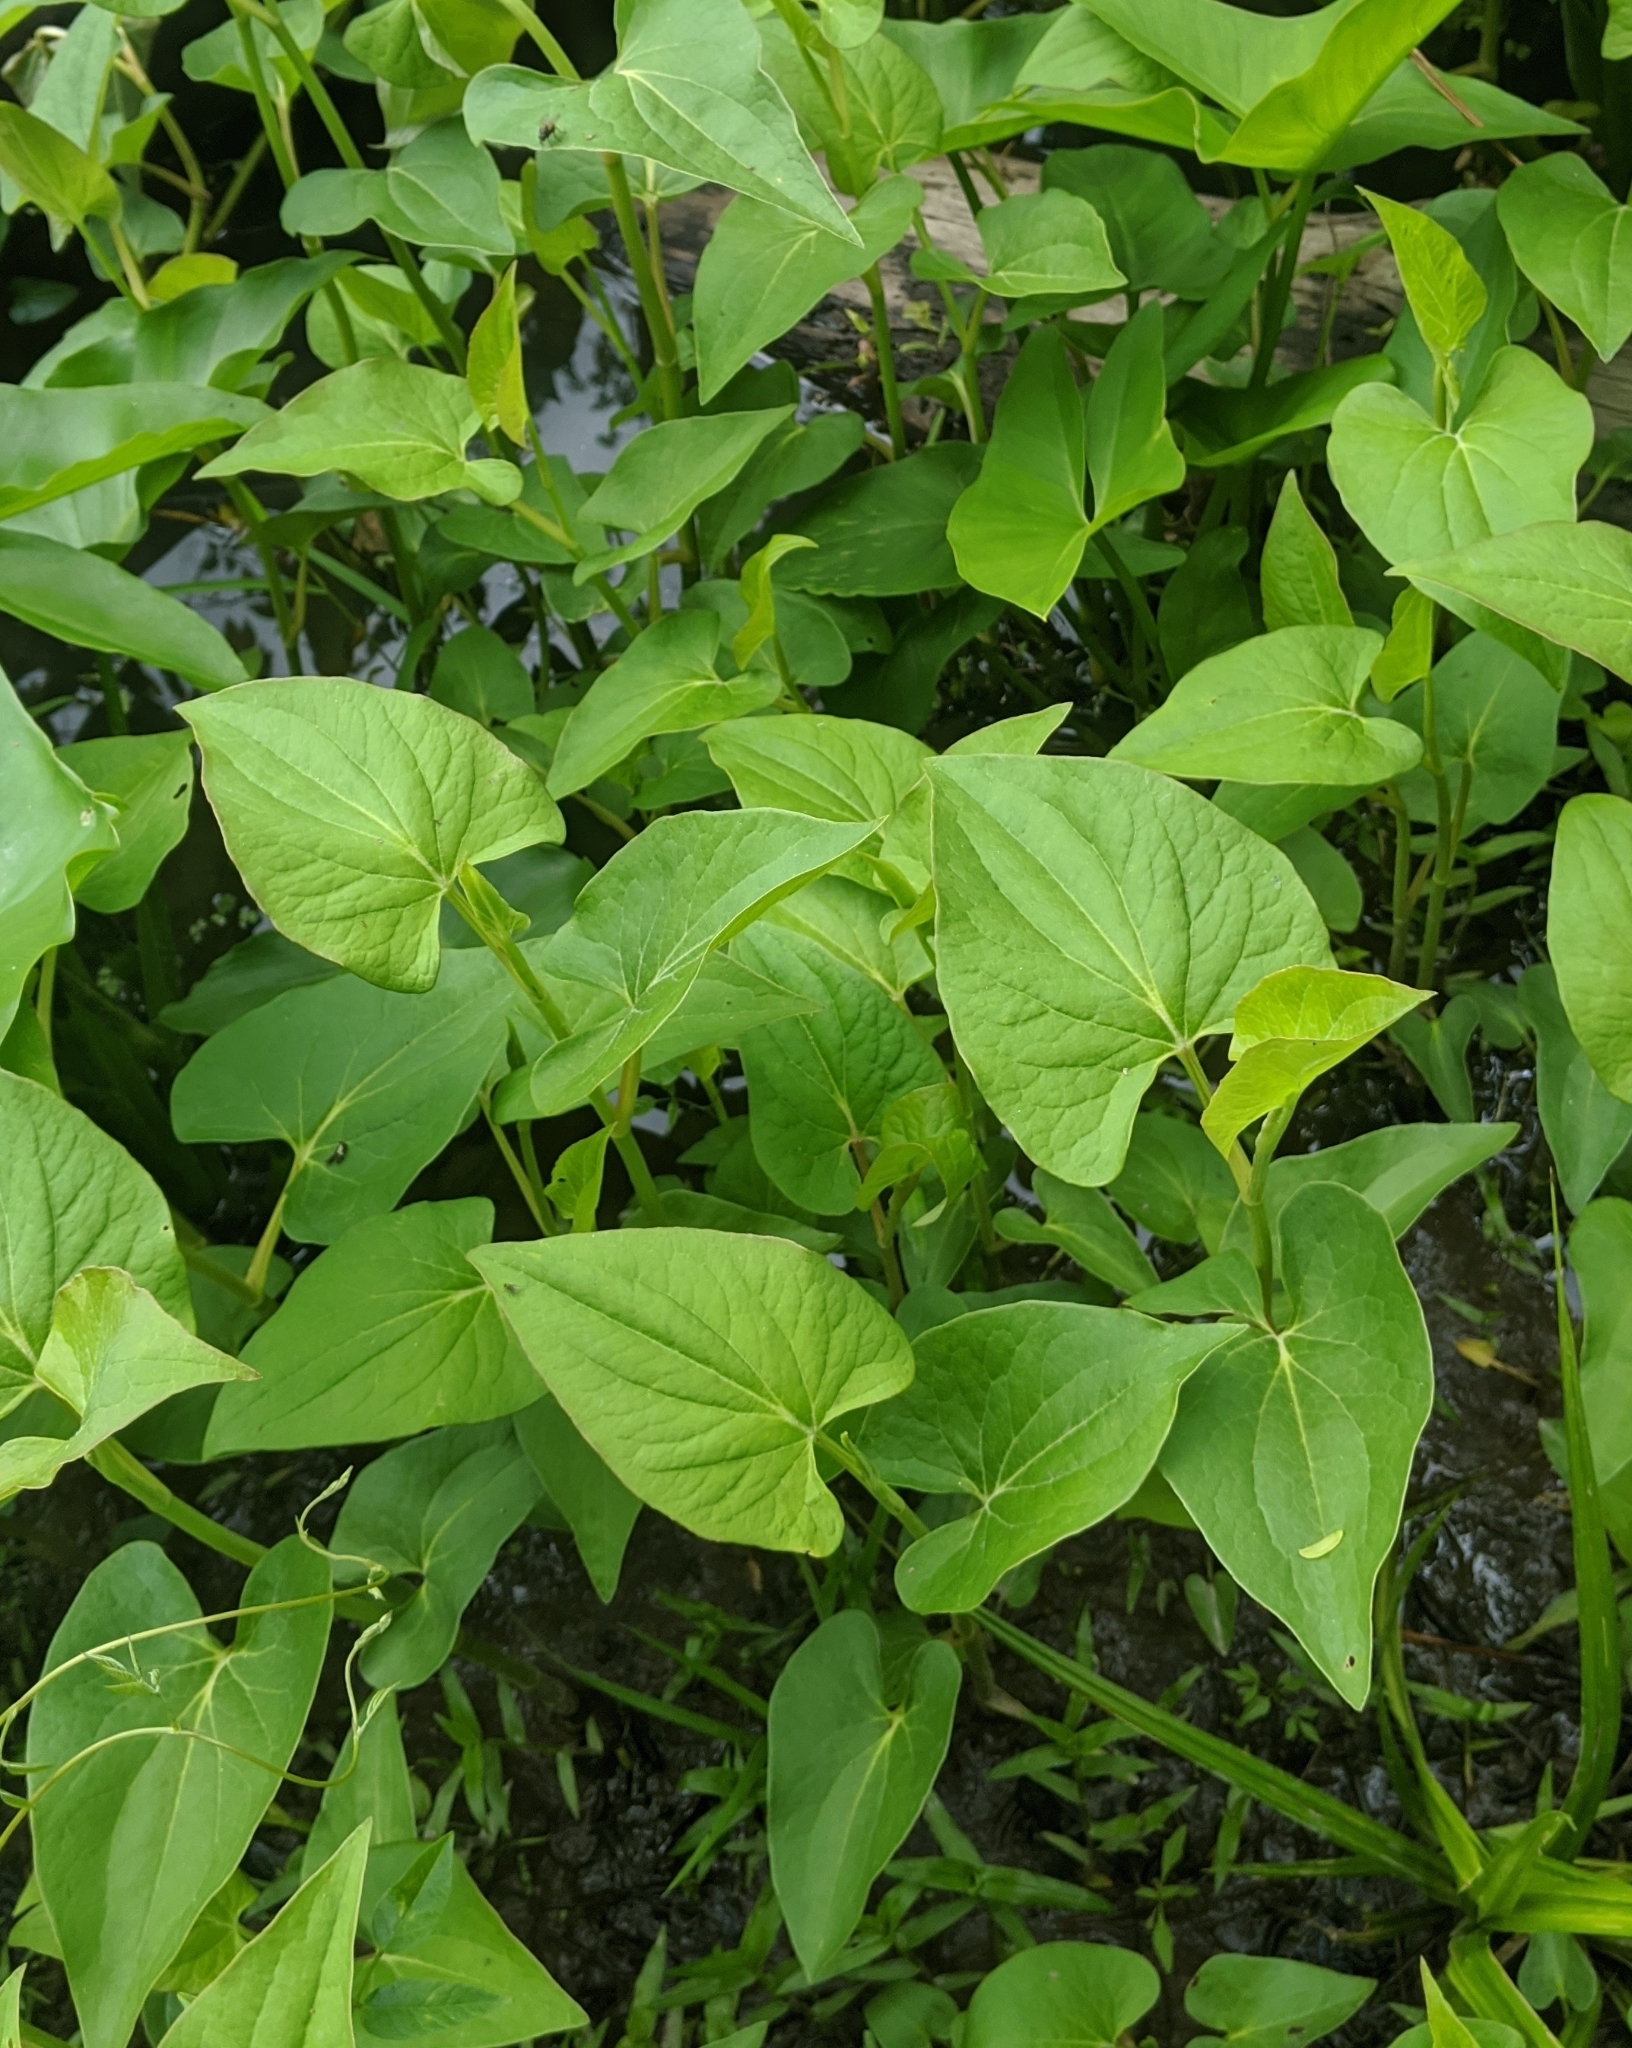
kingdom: Plantae
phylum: Tracheophyta
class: Magnoliopsida
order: Piperales
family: Saururaceae
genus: Saururus
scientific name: Saururus cernuus
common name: Lizard's-tail
